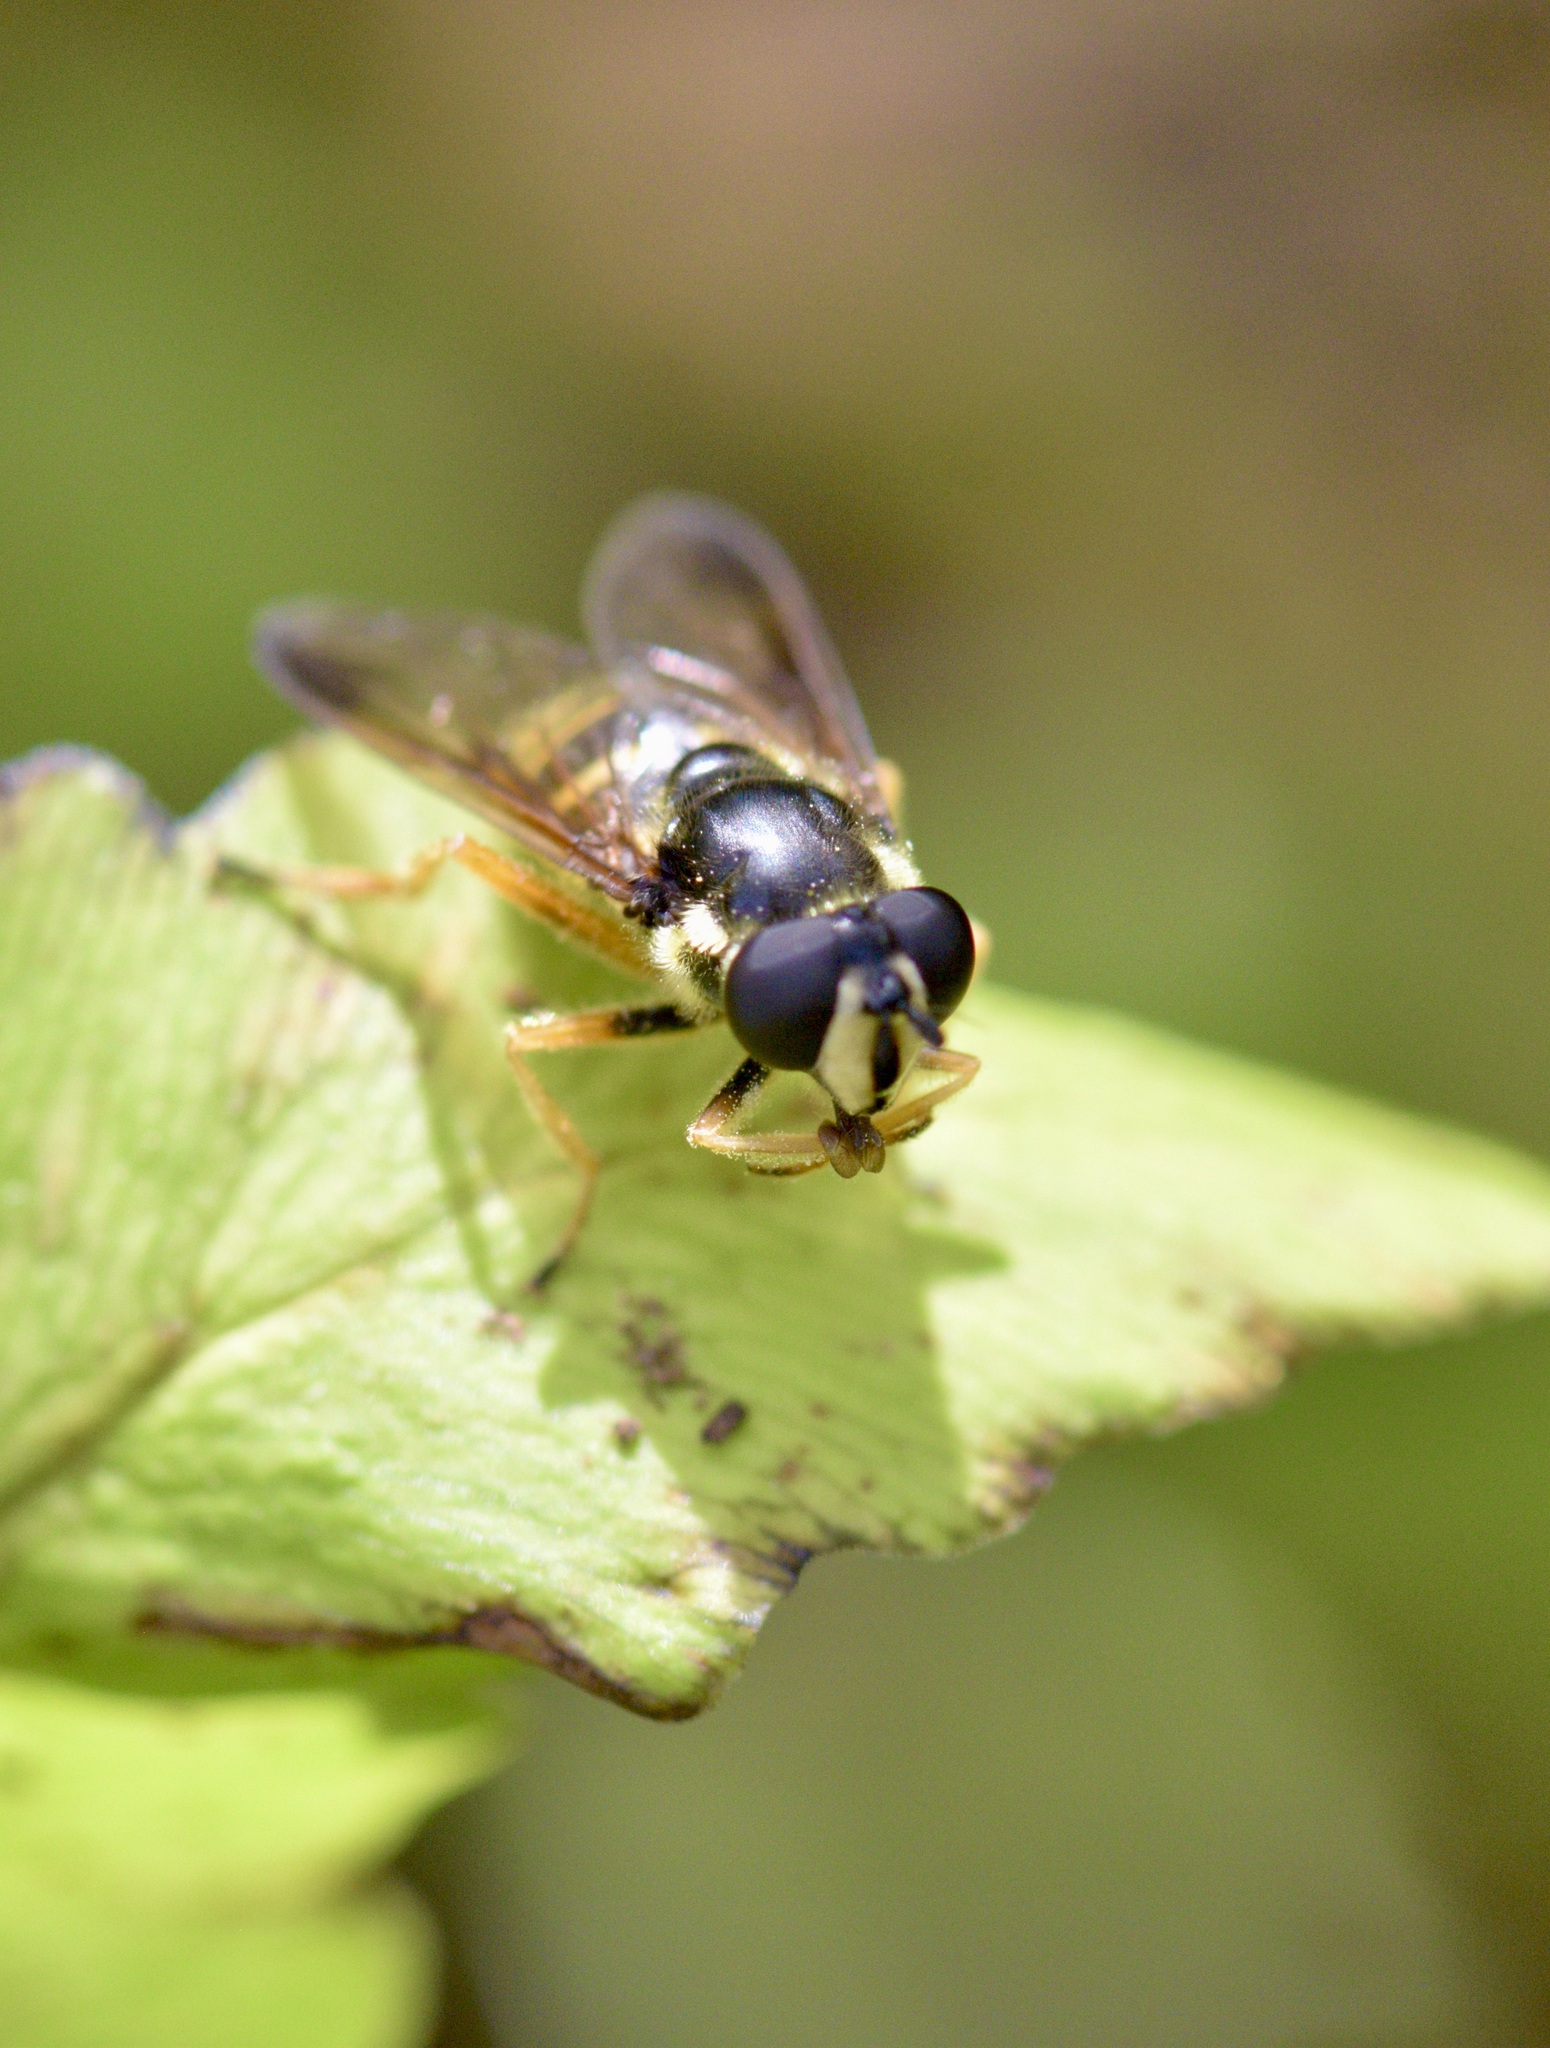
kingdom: Animalia
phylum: Arthropoda
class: Insecta
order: Diptera
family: Syrphidae
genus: Sericomyia
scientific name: Sericomyia chrysotoxoides
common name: Oblique-banded pond fly
